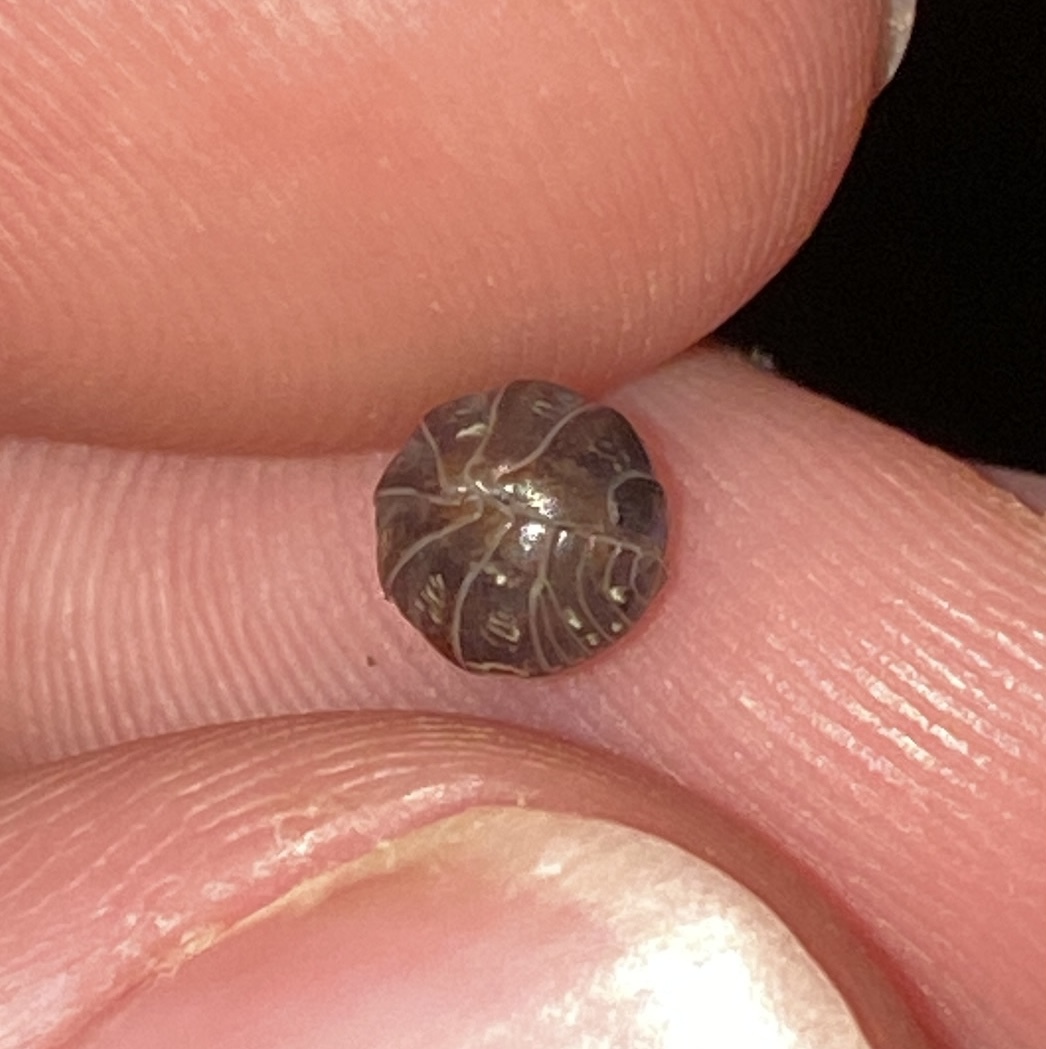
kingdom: Animalia
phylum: Arthropoda
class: Malacostraca
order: Isopoda
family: Armadillidiidae
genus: Armadillidium
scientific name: Armadillidium vulgare
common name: Common pill woodlouse
